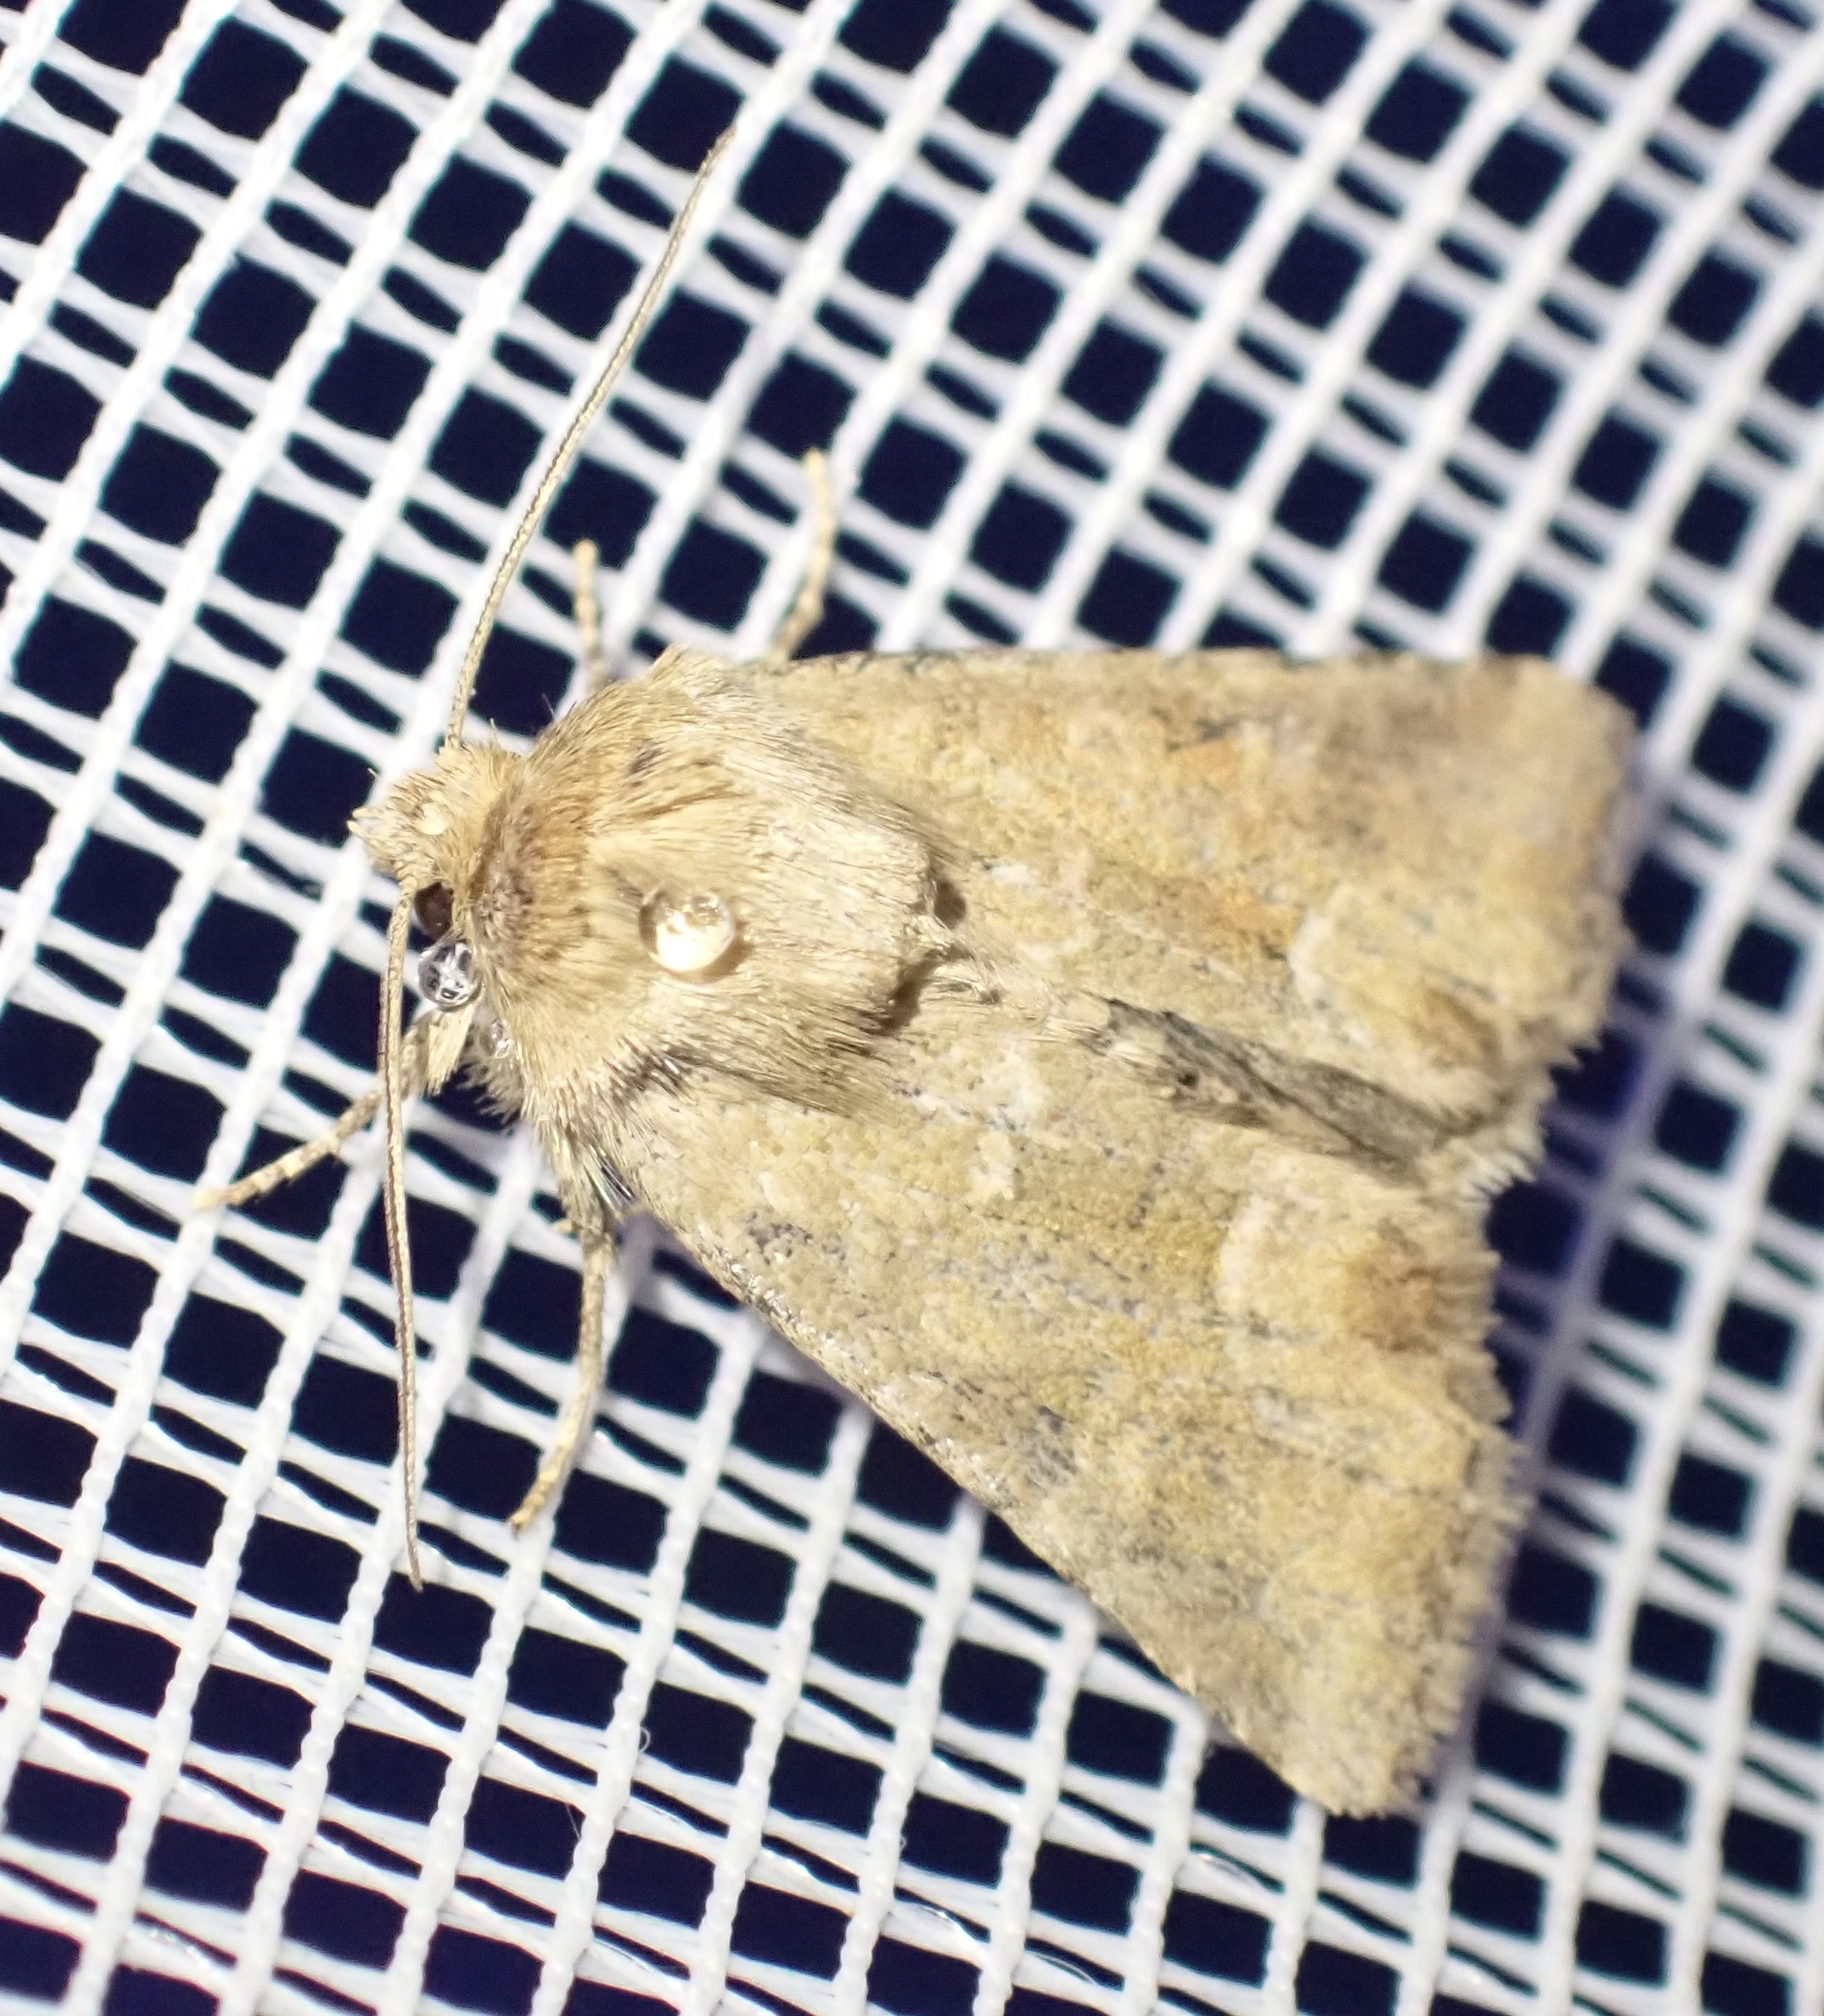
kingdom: Animalia
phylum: Arthropoda
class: Insecta
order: Lepidoptera
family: Noctuidae
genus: Oligia
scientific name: Oligia fasciuncula
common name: Middle-barred minor
